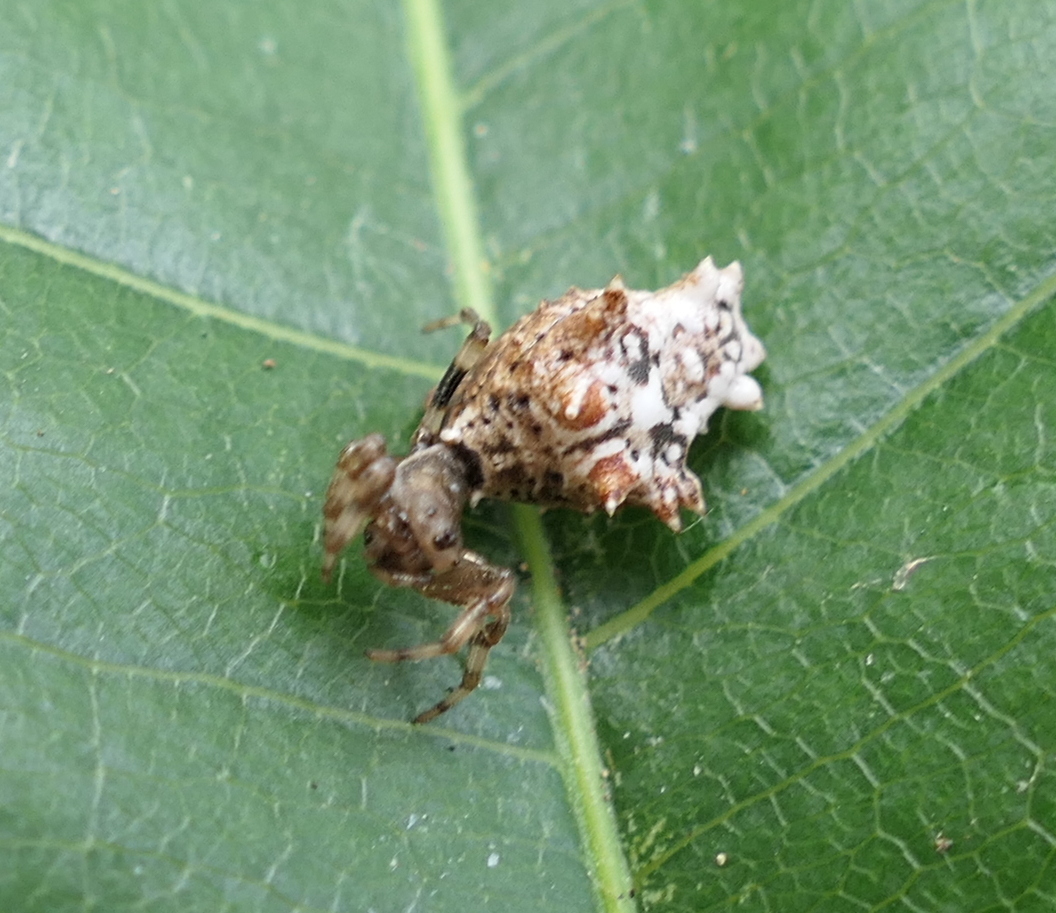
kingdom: Animalia
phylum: Arthropoda
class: Arachnida
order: Araneae
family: Araneidae
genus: Micrathena
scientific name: Micrathena horrida
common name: Orb weavers
